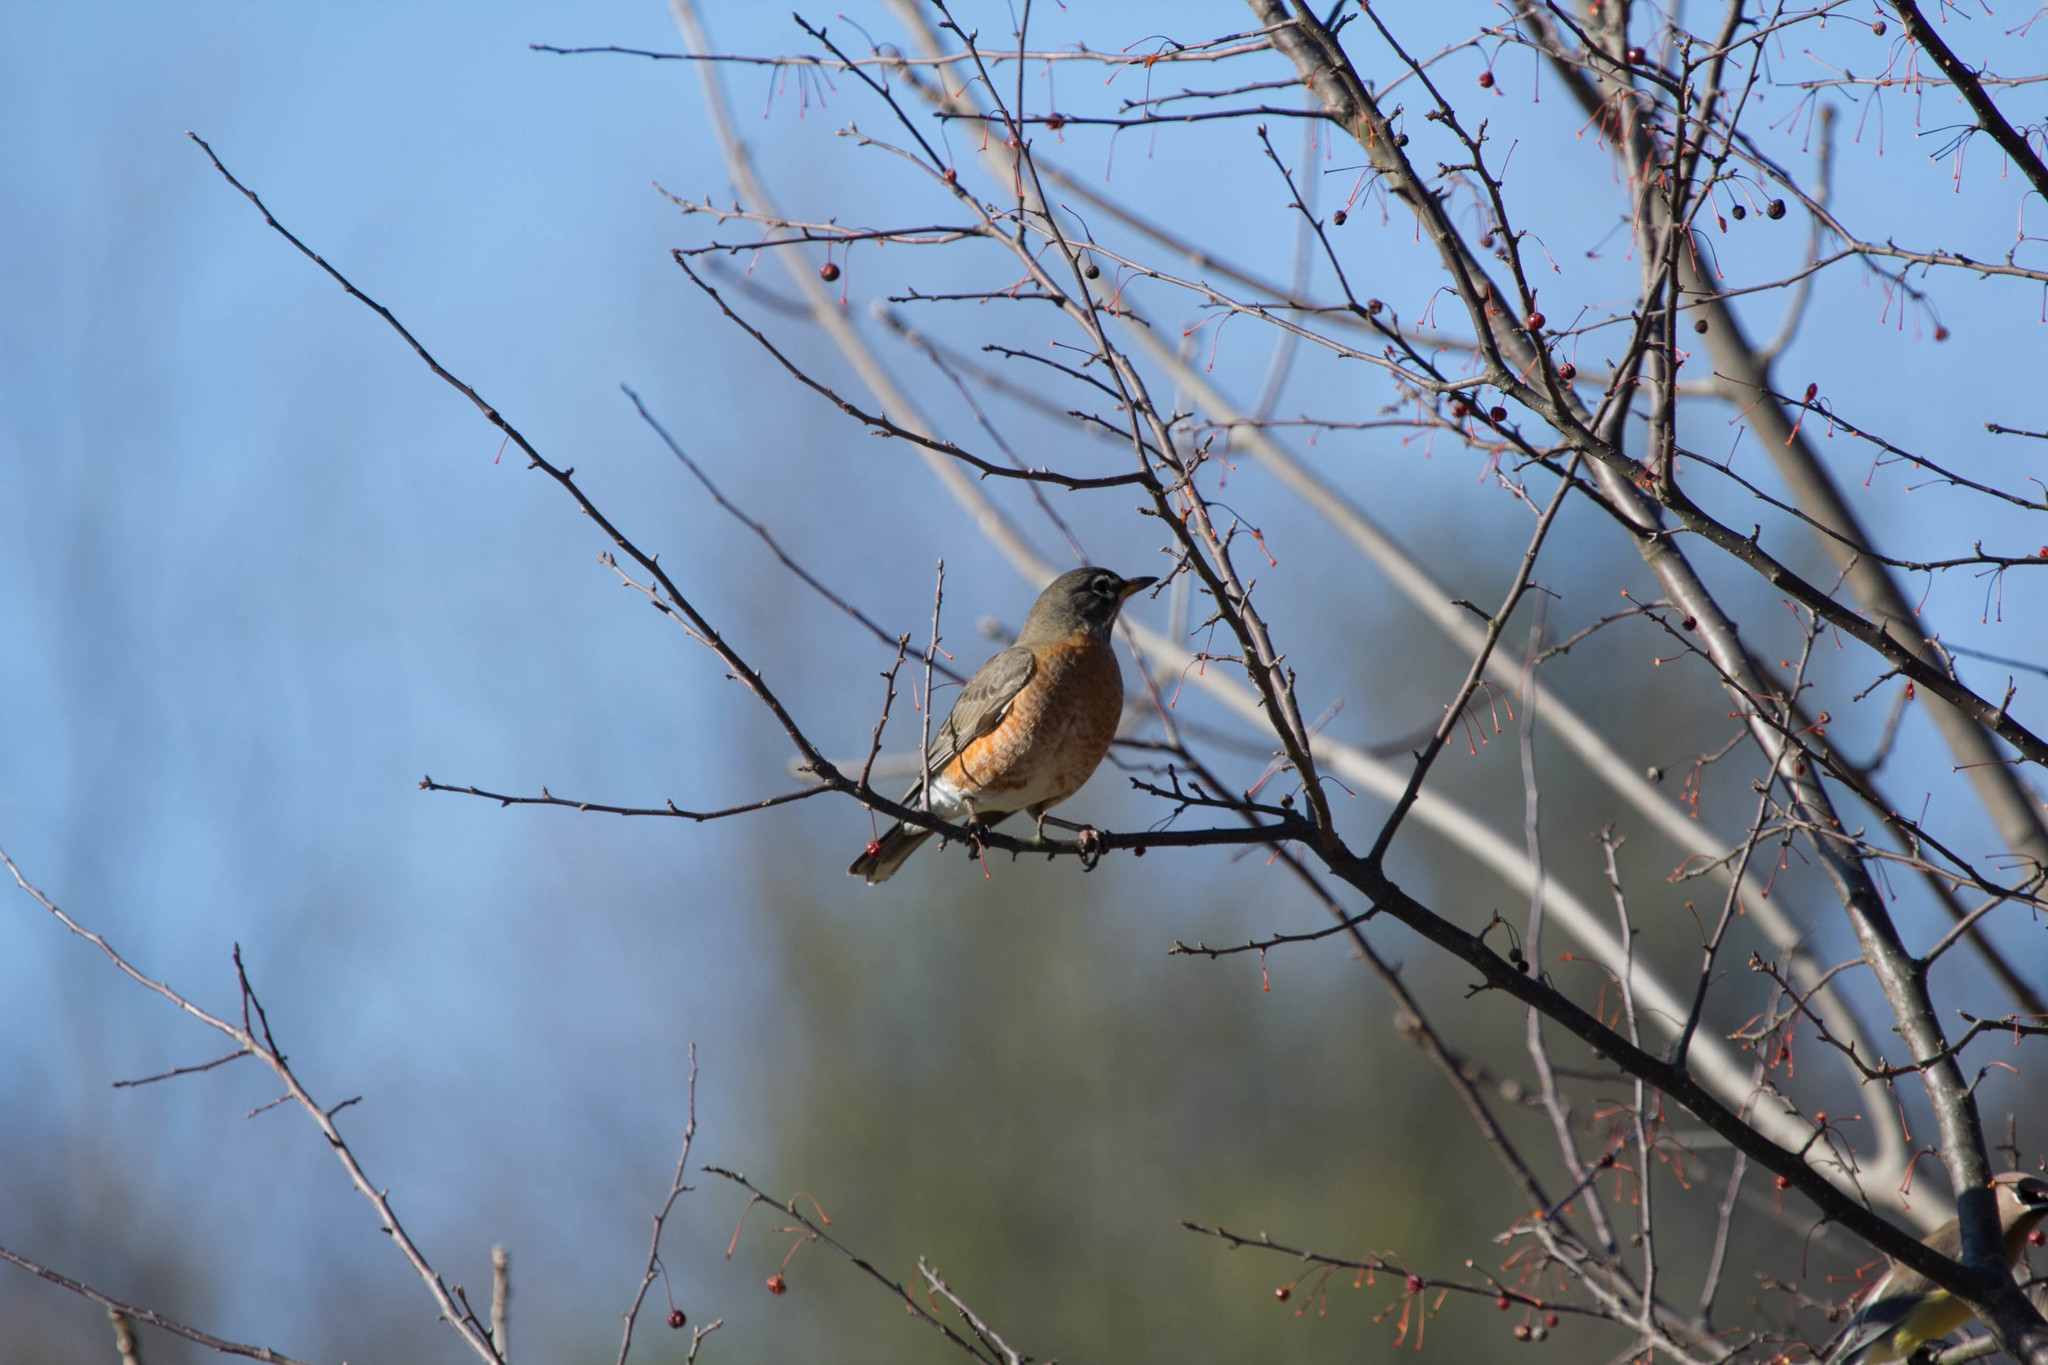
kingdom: Animalia
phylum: Chordata
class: Aves
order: Passeriformes
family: Turdidae
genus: Turdus
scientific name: Turdus migratorius
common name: American robin
